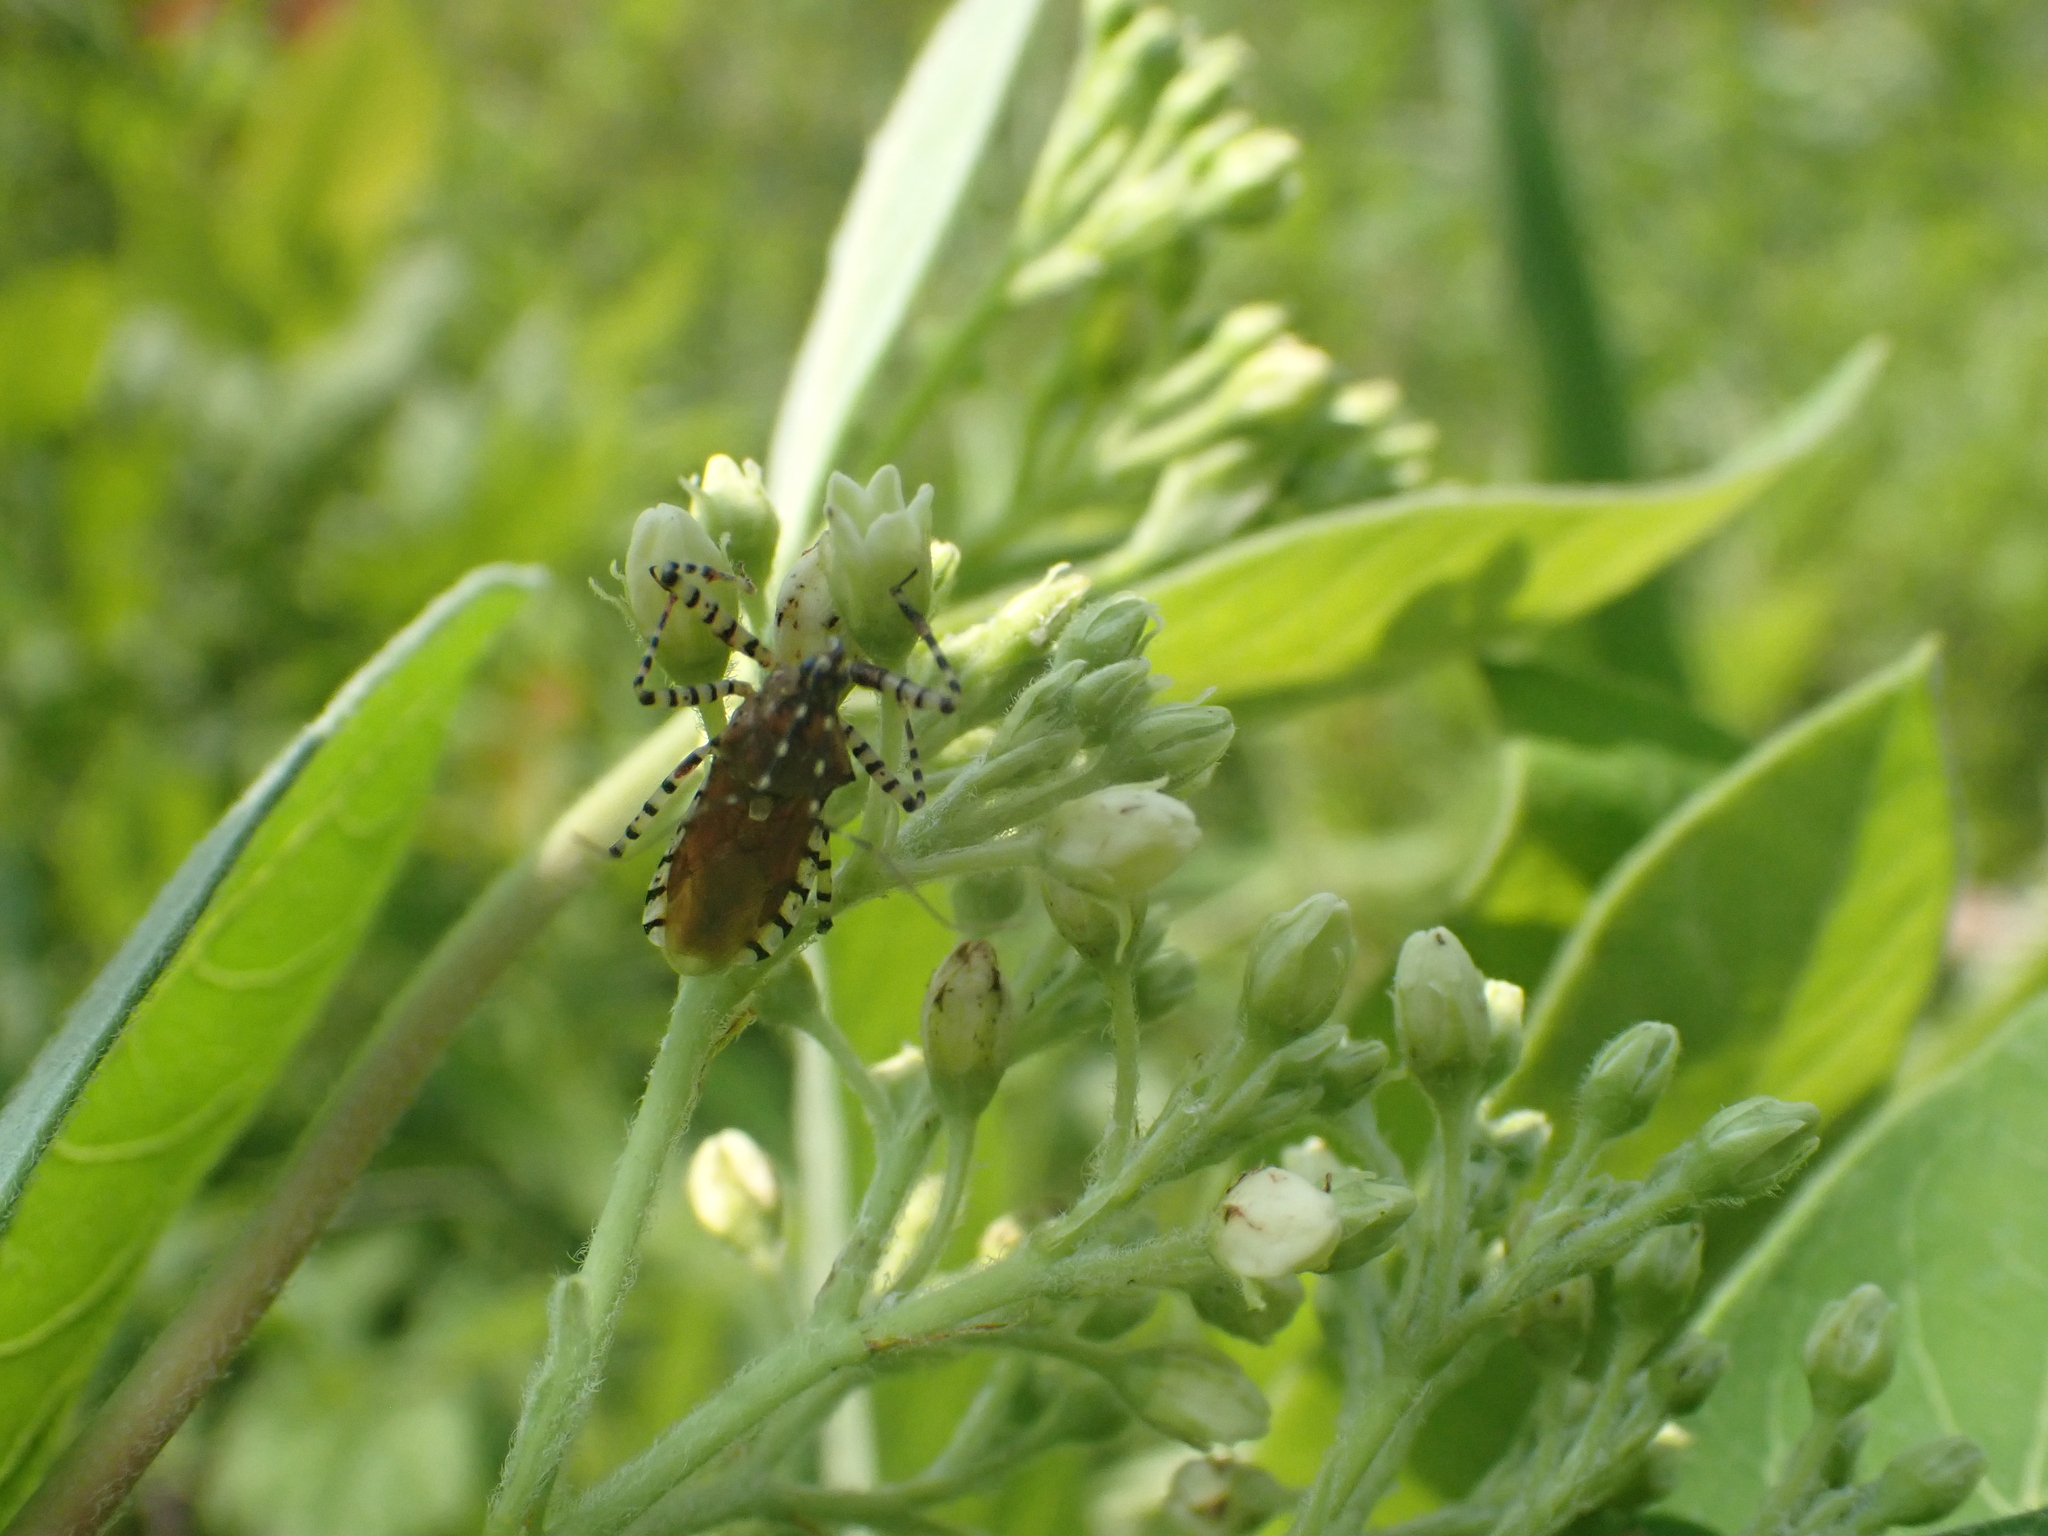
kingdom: Animalia
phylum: Arthropoda
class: Insecta
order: Hemiptera
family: Reduviidae
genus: Pselliopus
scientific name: Pselliopus cinctus
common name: Ringed assassin bug
